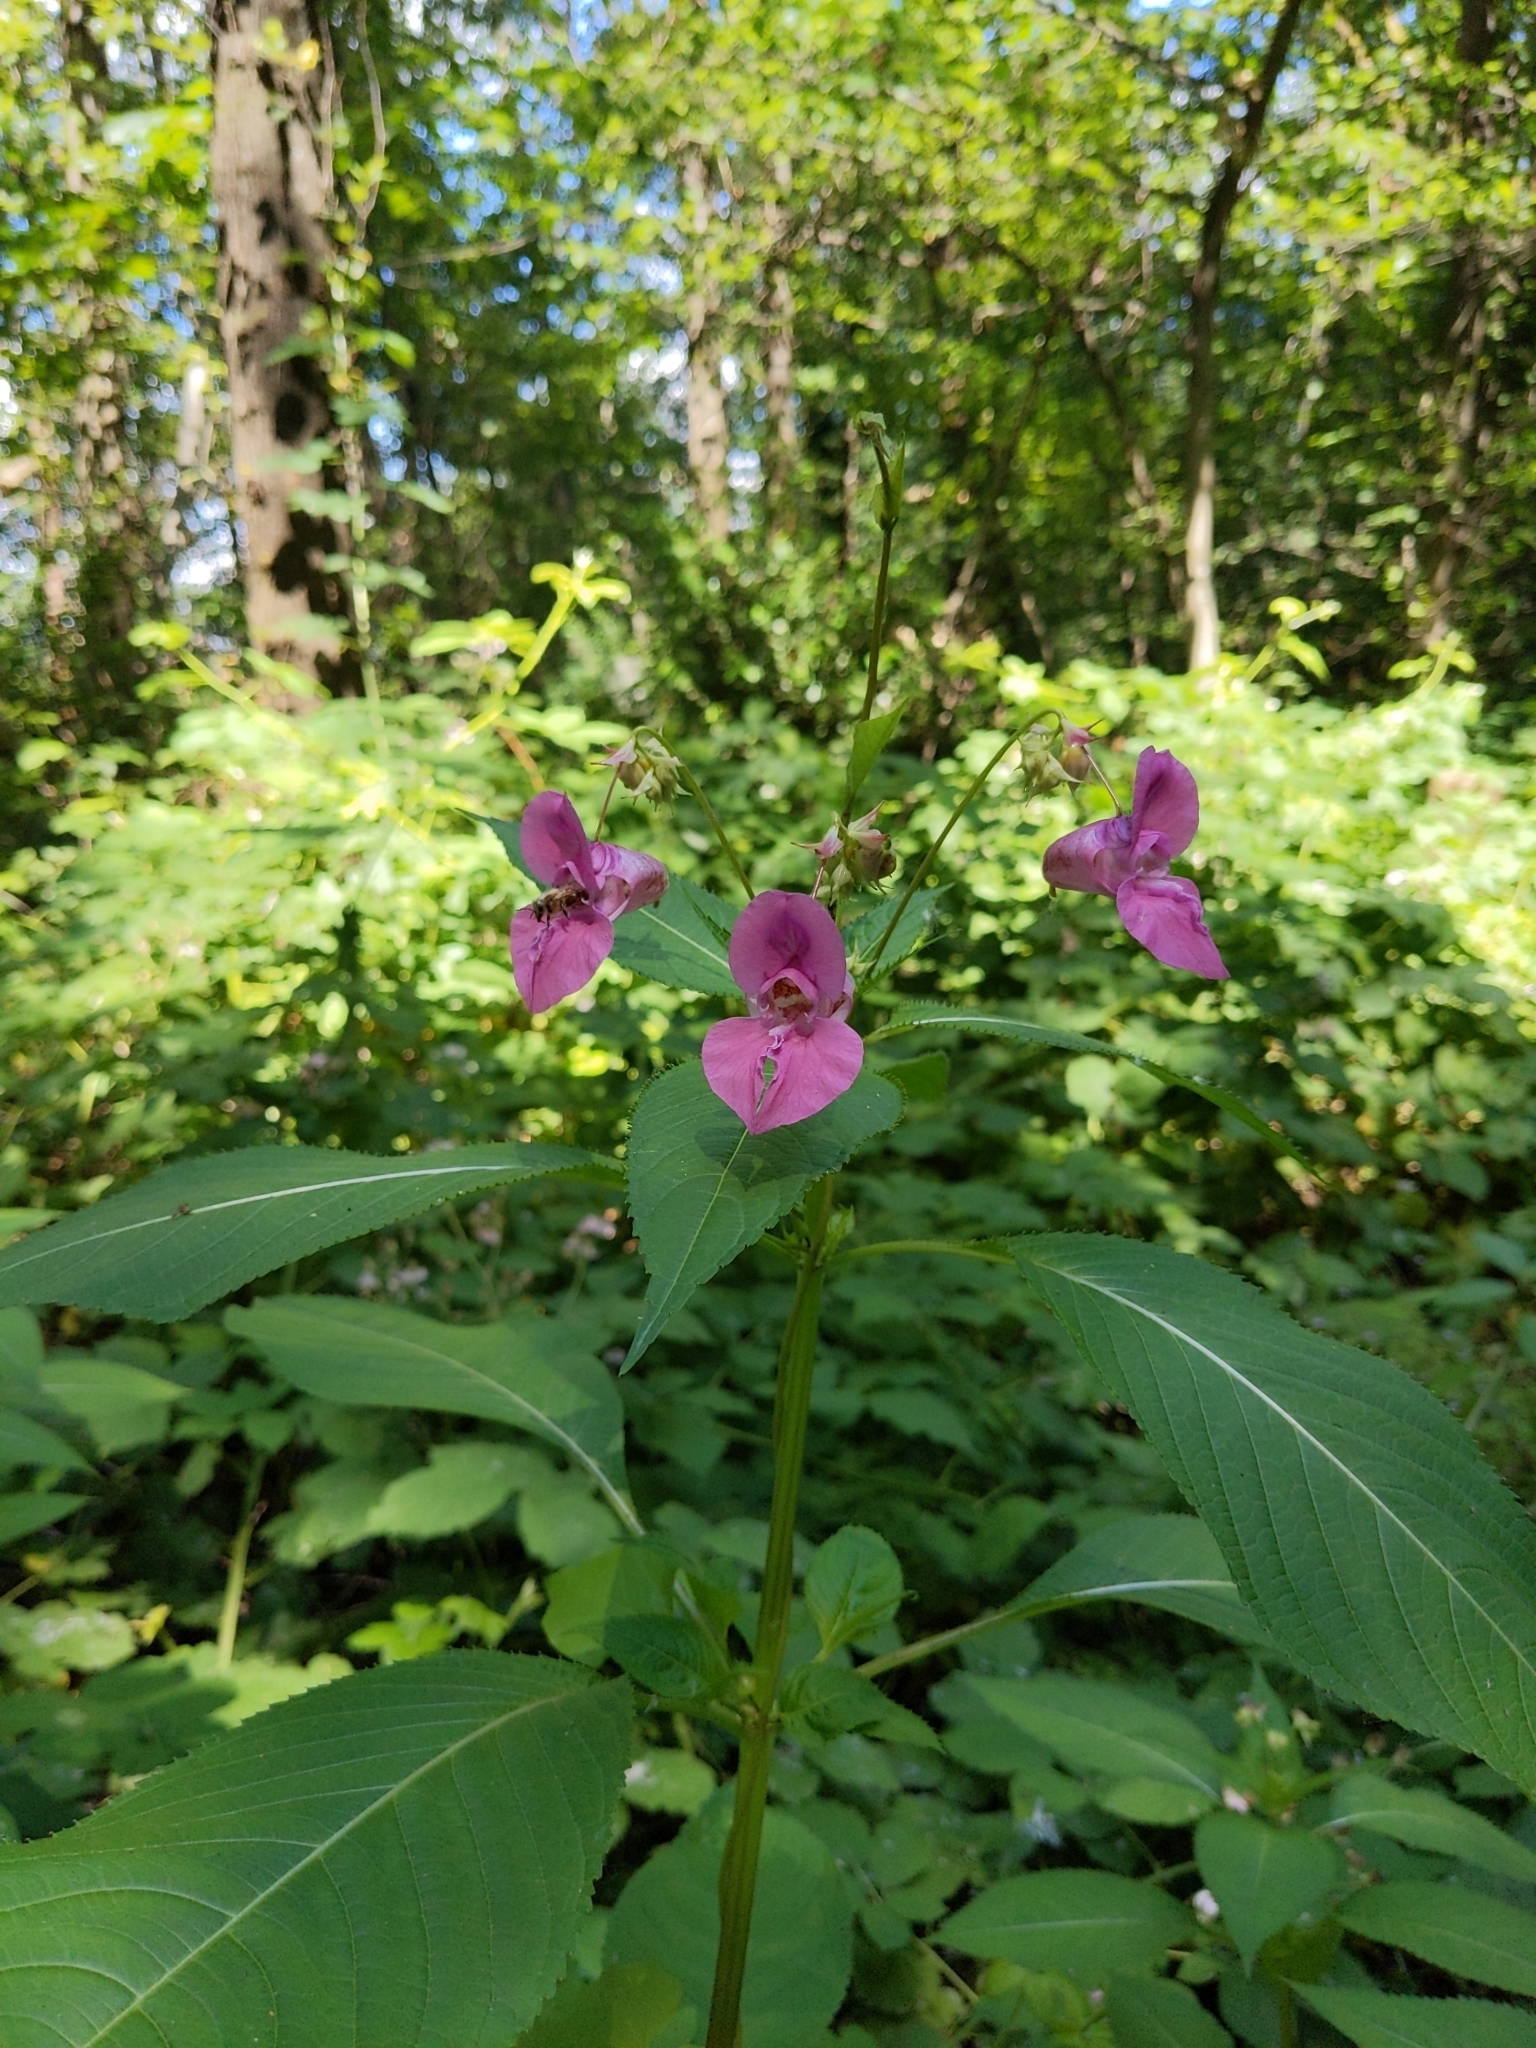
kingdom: Plantae
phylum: Tracheophyta
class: Magnoliopsida
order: Ericales
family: Balsaminaceae
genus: Impatiens
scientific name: Impatiens glandulifera
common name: Himalayan balsam
